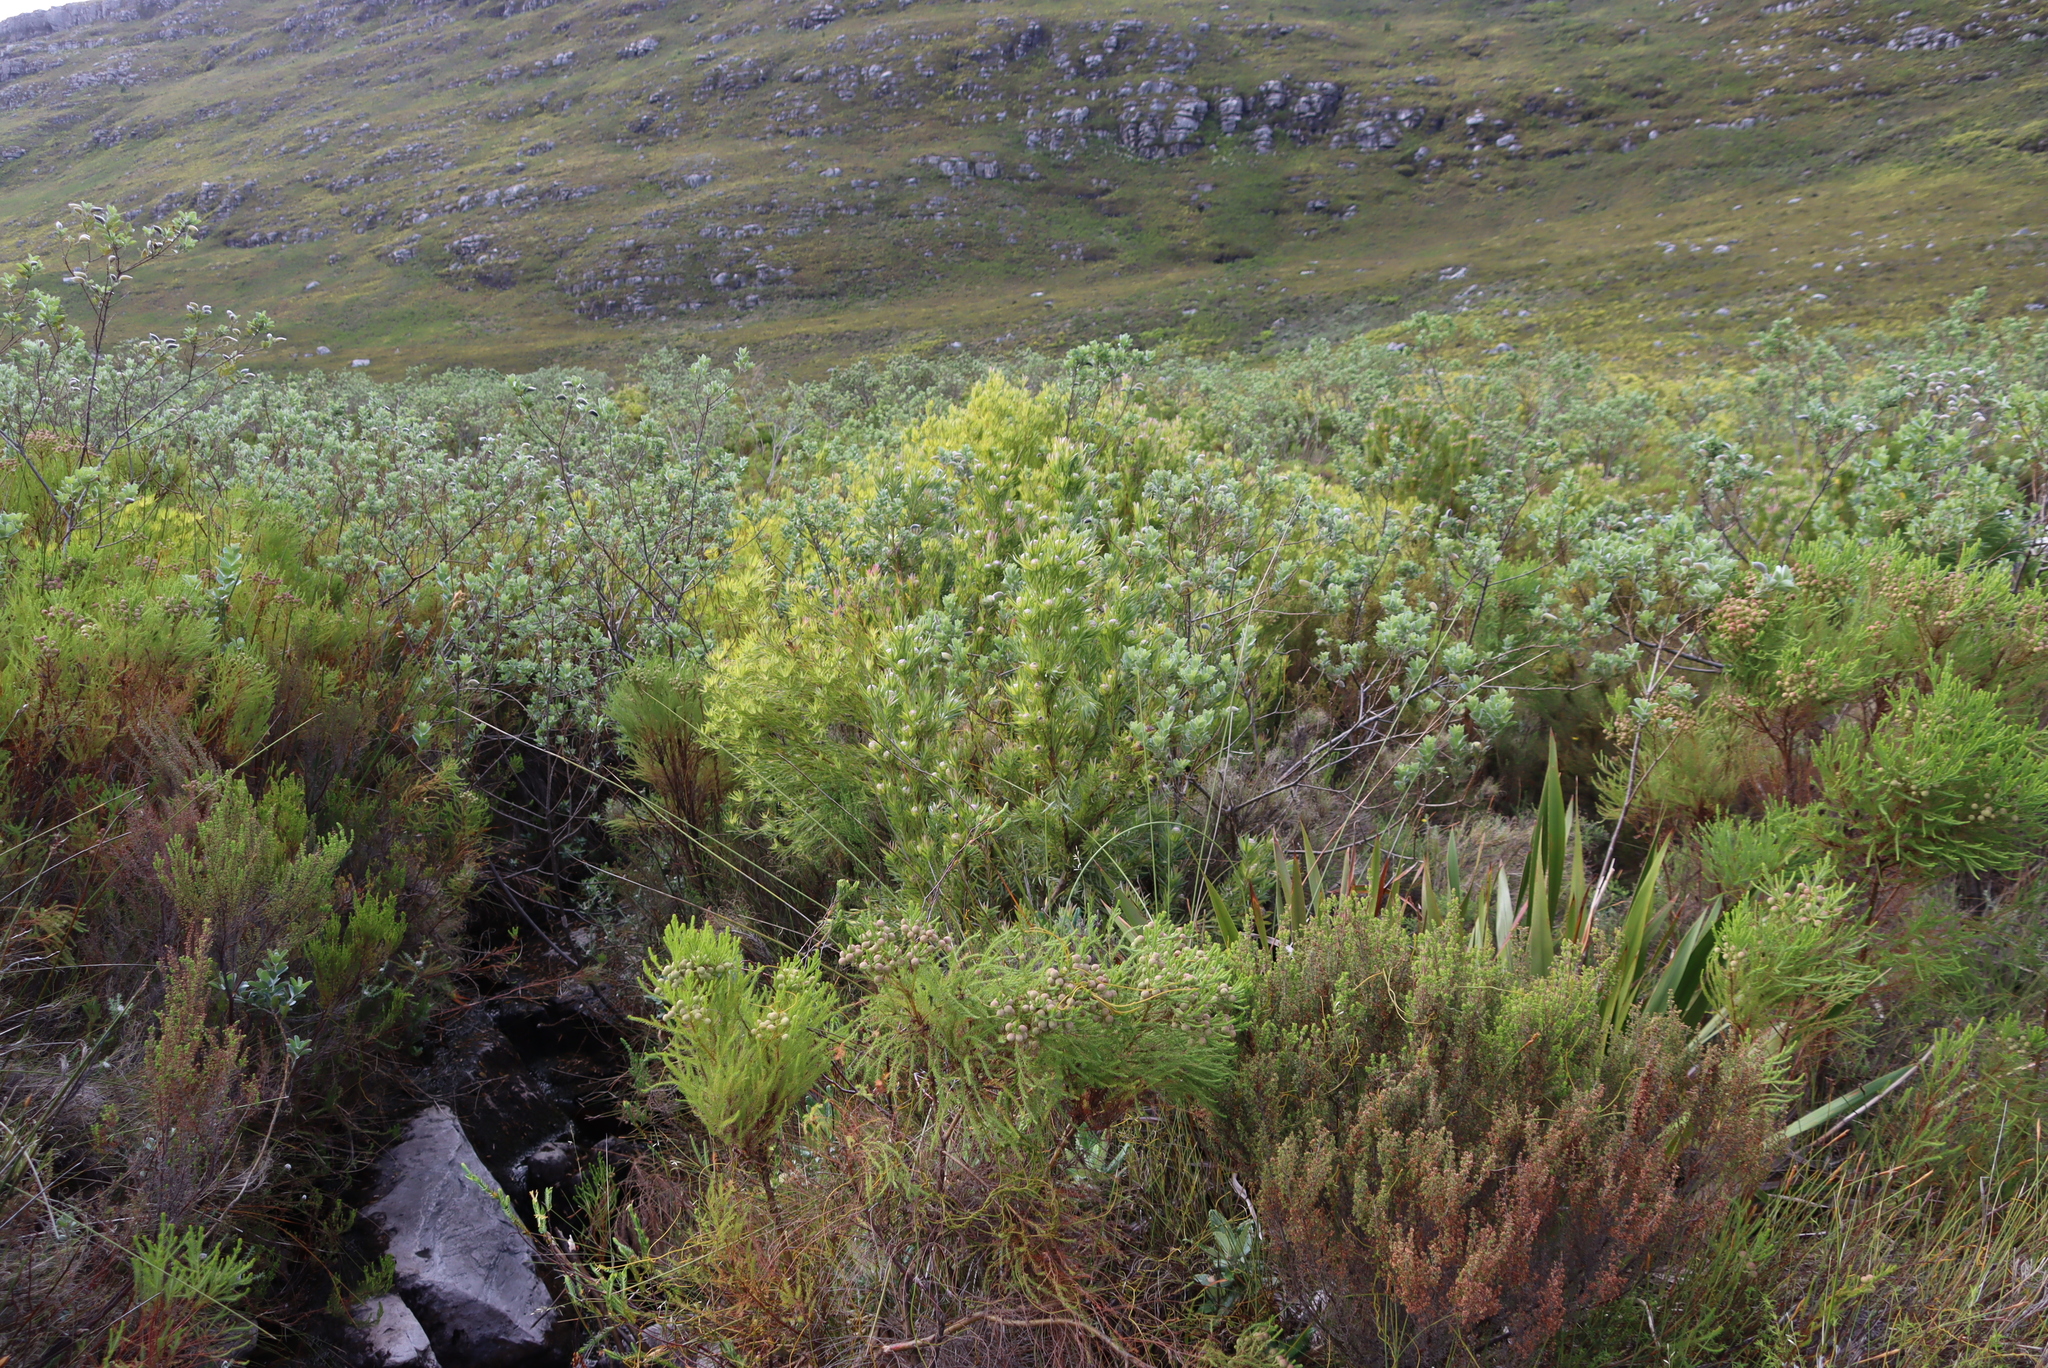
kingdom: Plantae
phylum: Tracheophyta
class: Magnoliopsida
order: Proteales
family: Proteaceae
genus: Leucadendron
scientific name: Leucadendron xanthoconus
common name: Sickle-leaf conebush
